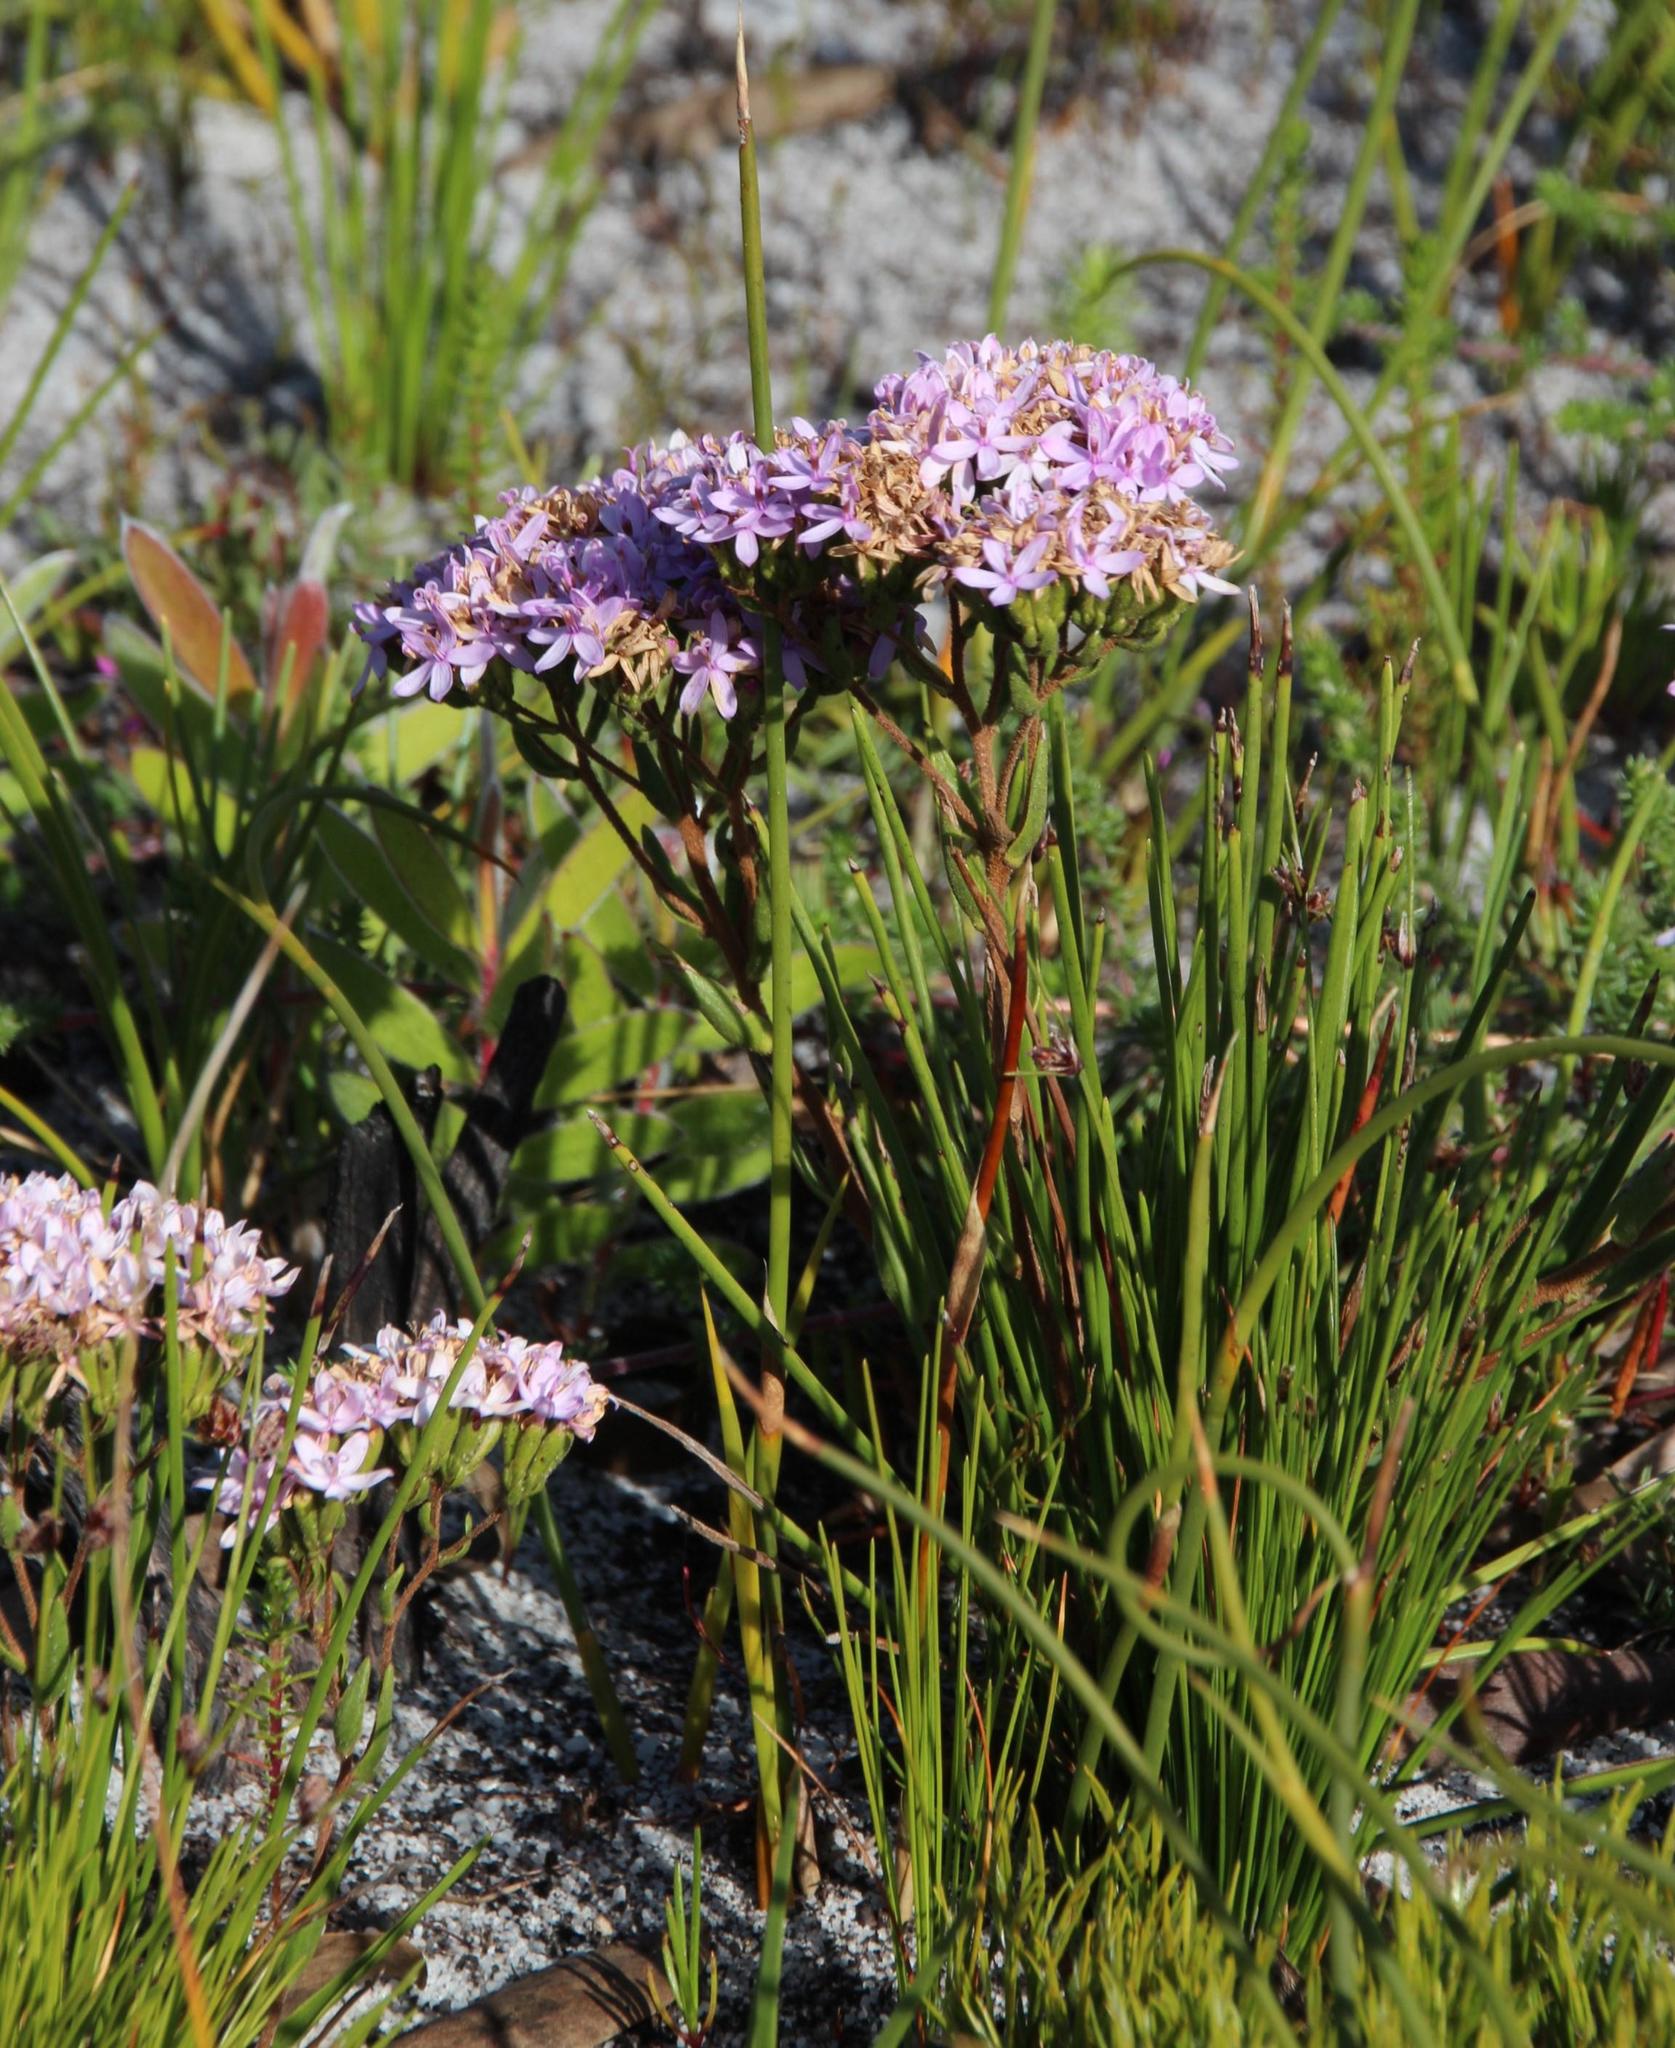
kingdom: Plantae
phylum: Tracheophyta
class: Magnoliopsida
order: Asterales
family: Asteraceae
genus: Corymbium
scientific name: Corymbium africanum
